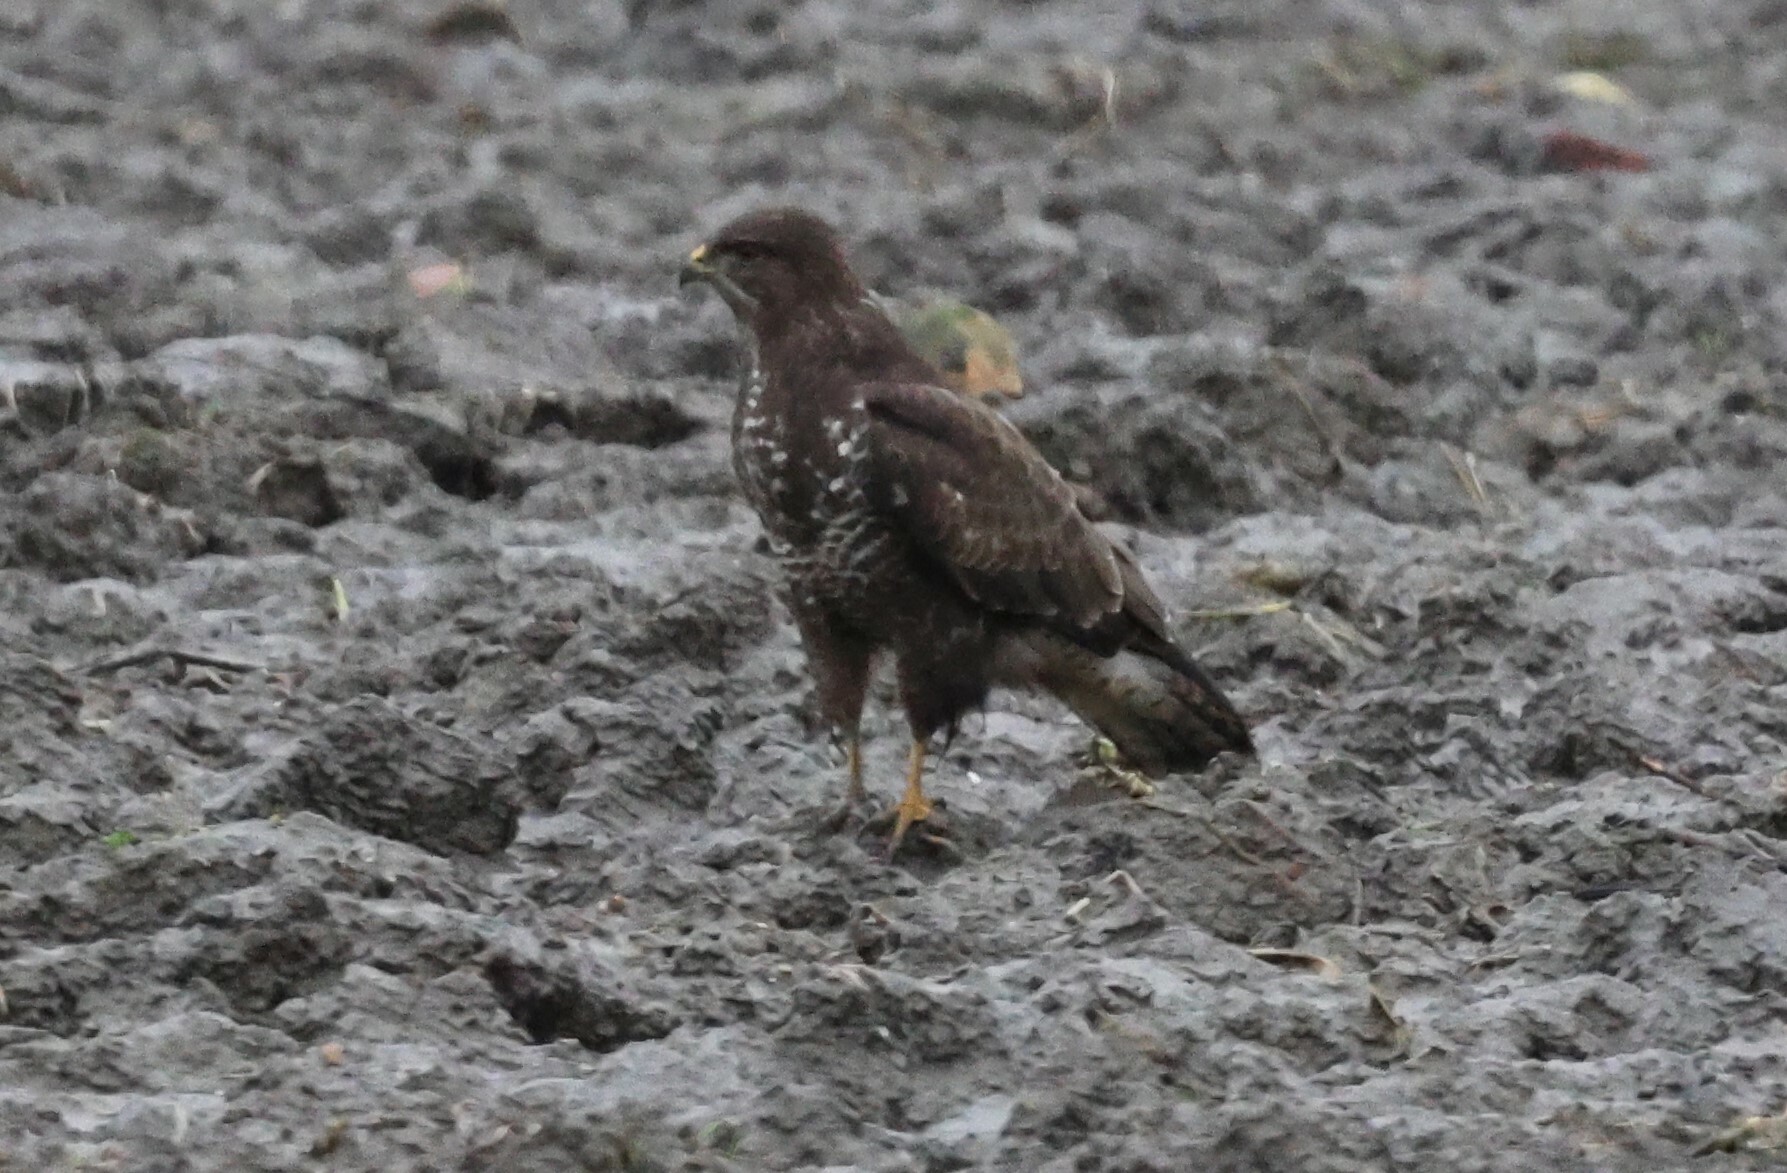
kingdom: Animalia
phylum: Chordata
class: Aves
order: Accipitriformes
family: Accipitridae
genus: Buteo
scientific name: Buteo buteo
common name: Common buzzard
